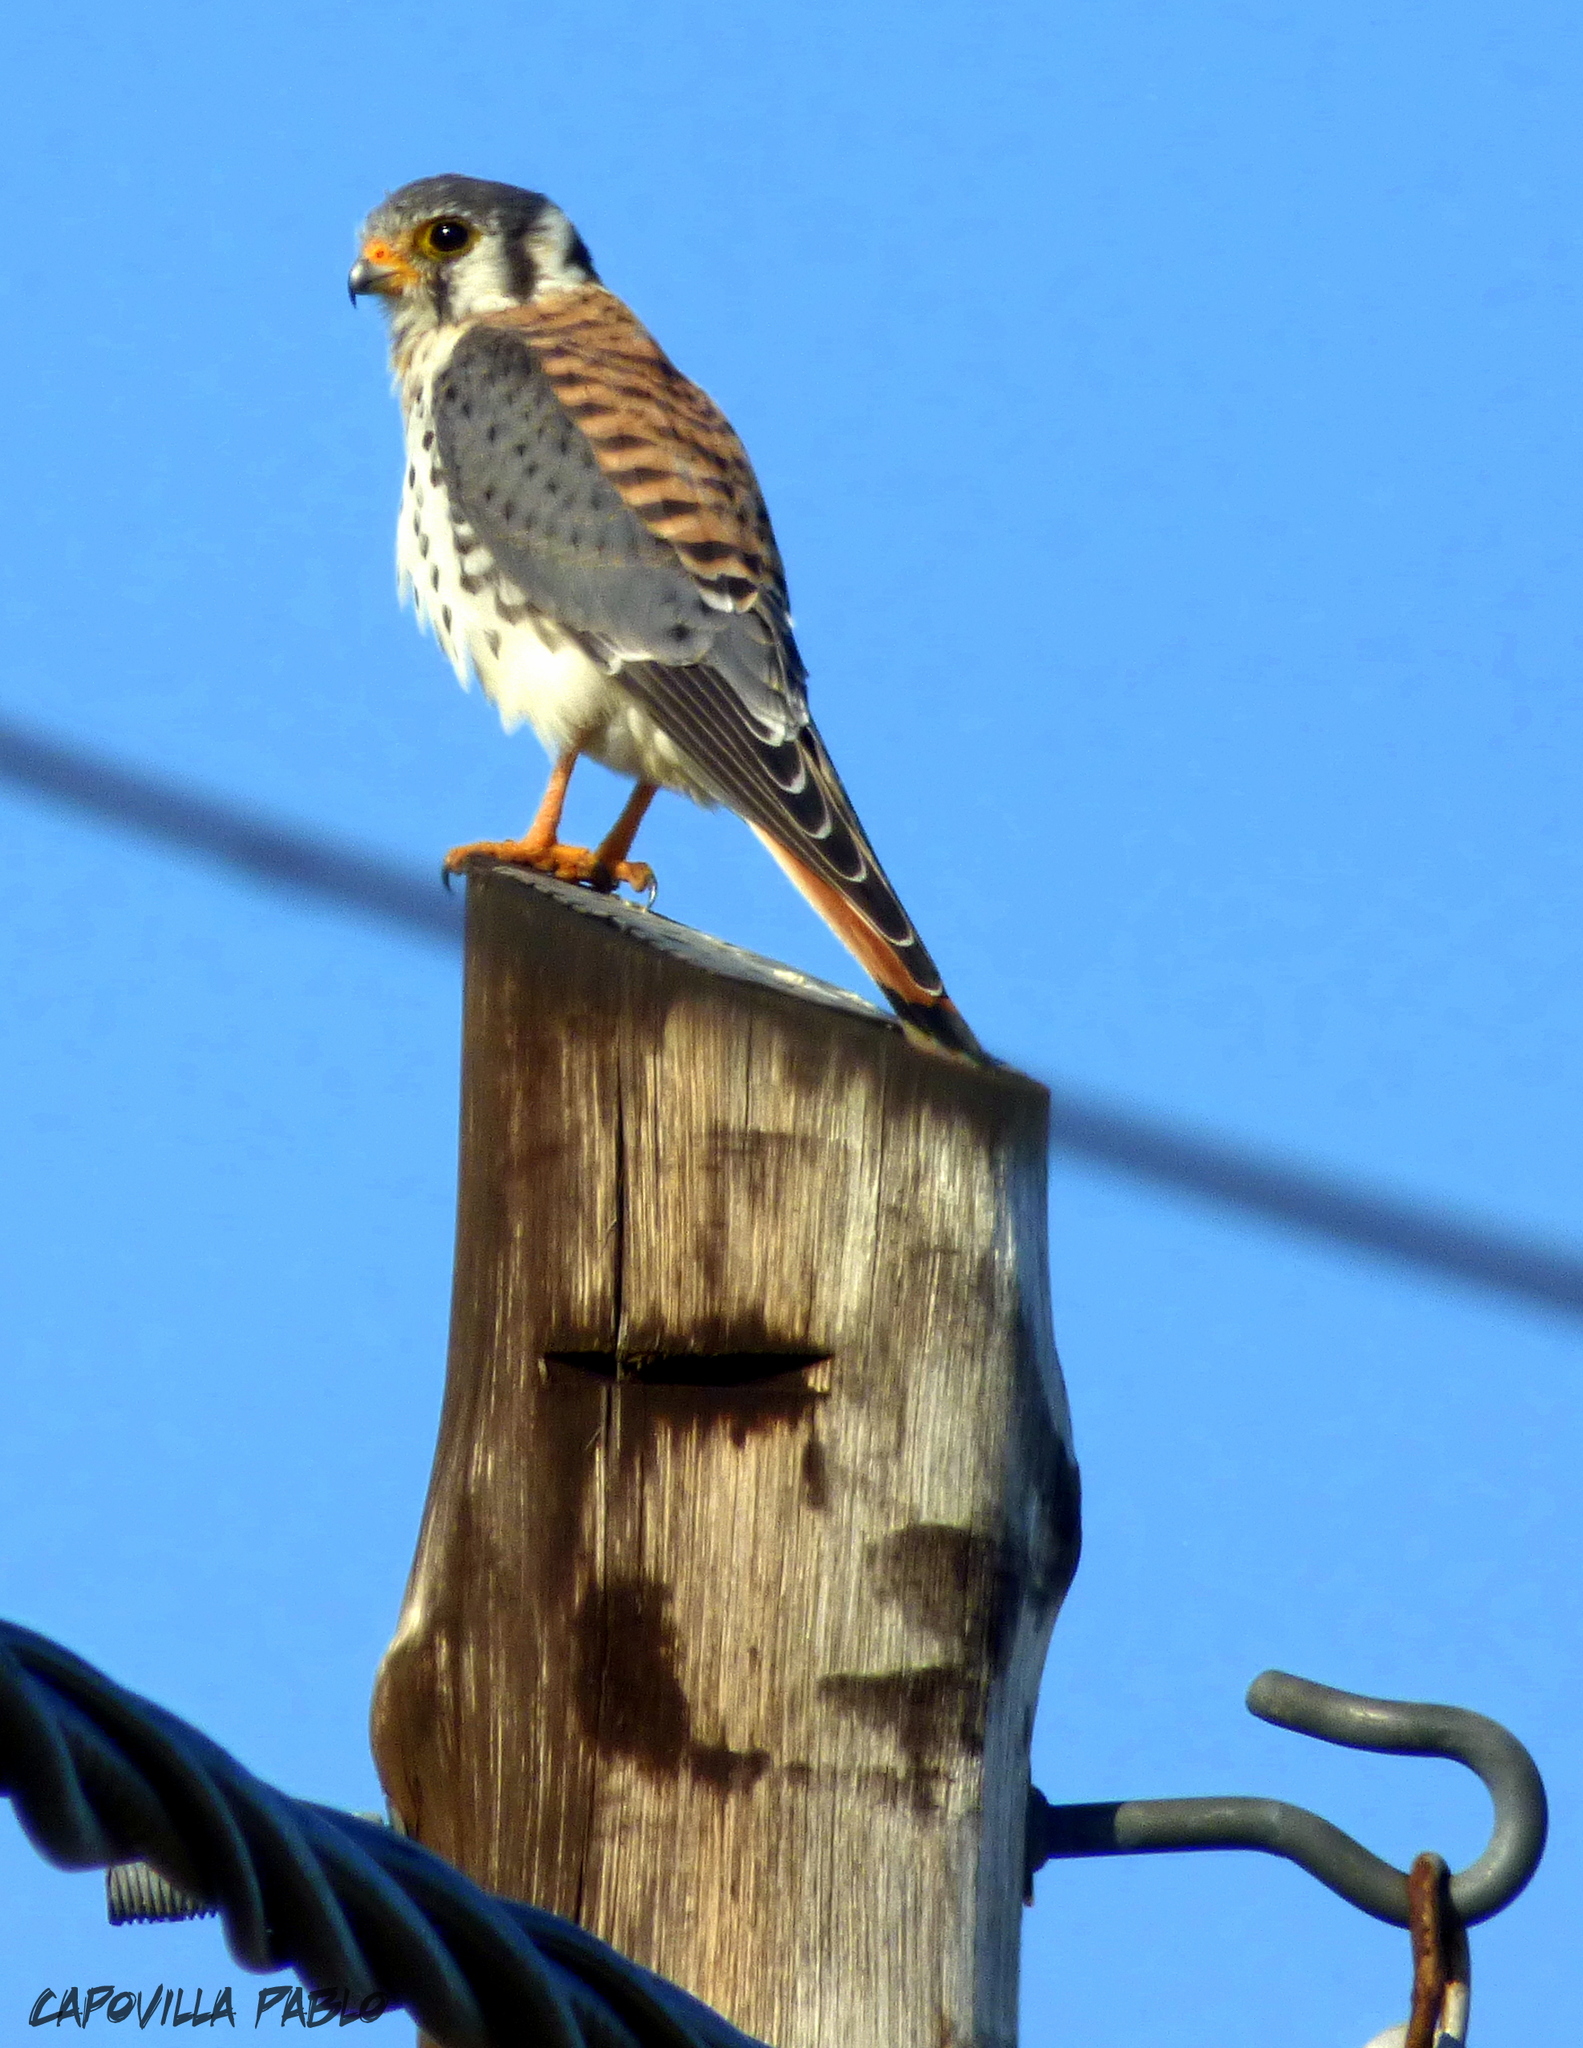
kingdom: Animalia
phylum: Chordata
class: Aves
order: Falconiformes
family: Falconidae
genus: Falco
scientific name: Falco sparverius
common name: American kestrel
